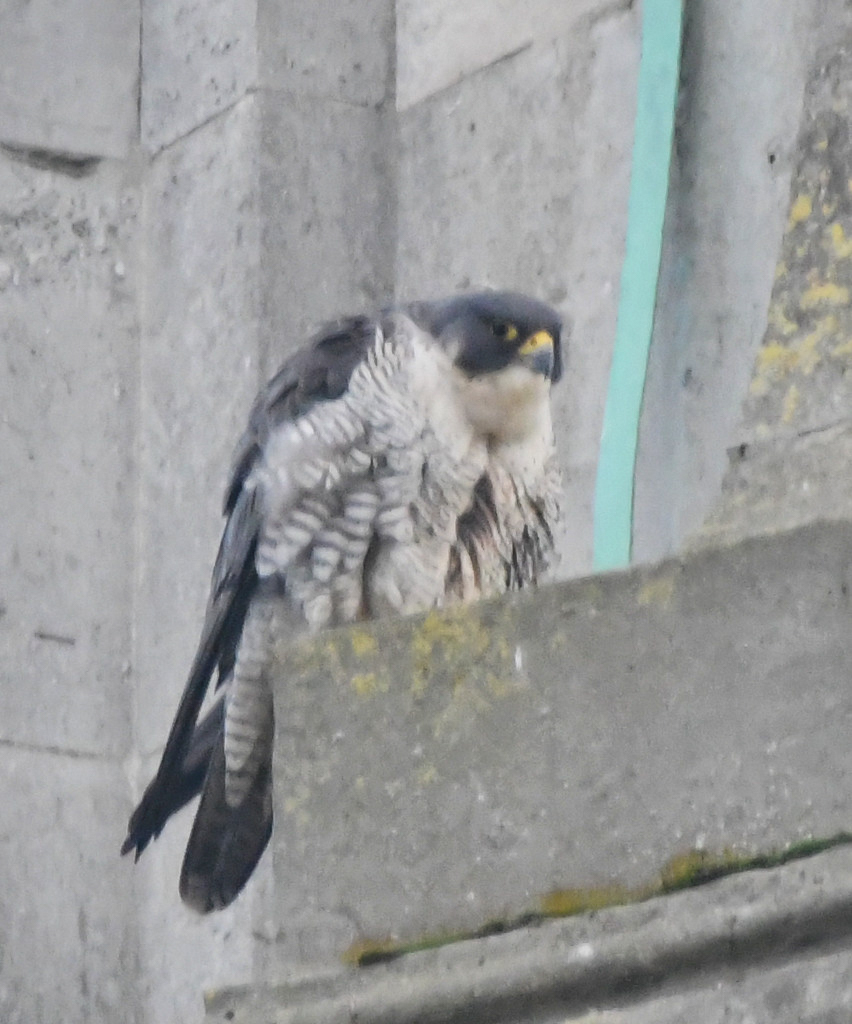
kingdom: Animalia
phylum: Chordata
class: Aves
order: Falconiformes
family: Falconidae
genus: Falco
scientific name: Falco peregrinus
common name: Peregrine falcon
